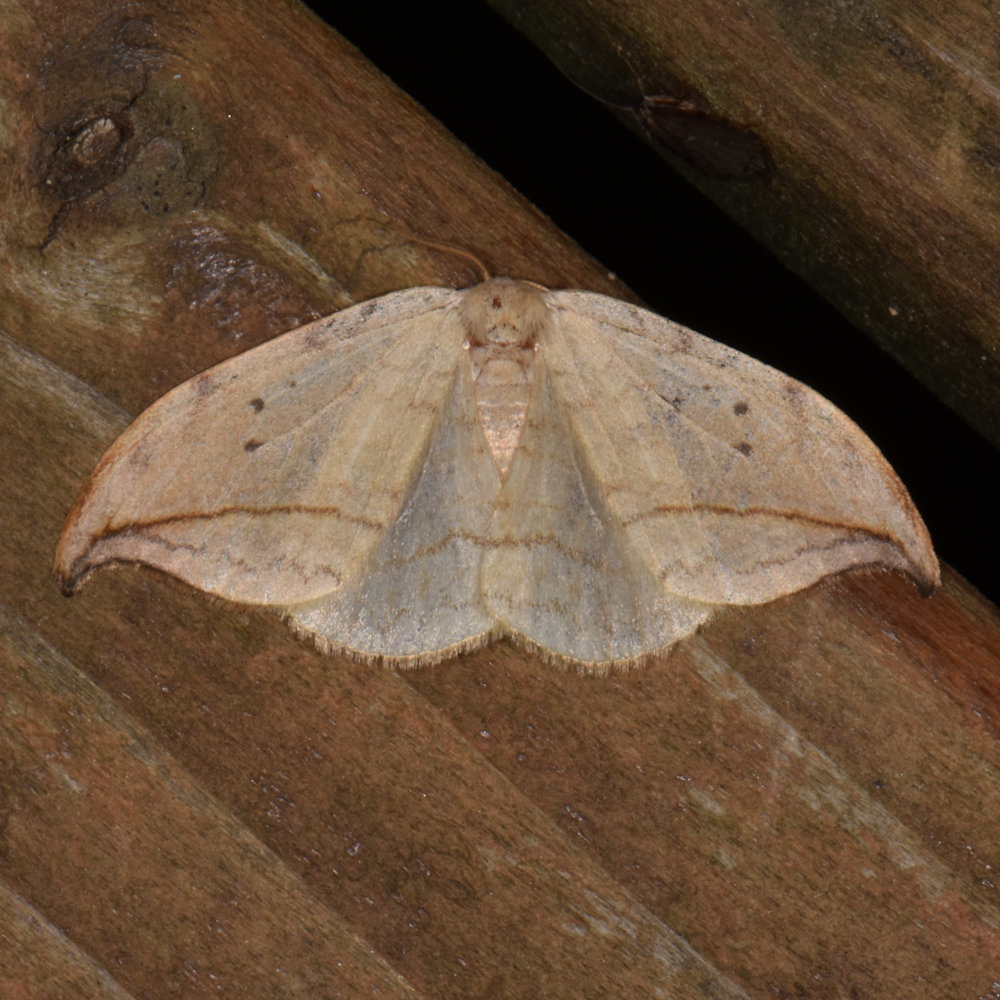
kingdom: Animalia
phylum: Arthropoda
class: Insecta
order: Lepidoptera
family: Drepanidae
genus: Drepana
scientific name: Drepana arcuata
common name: Arched hooktip moth
